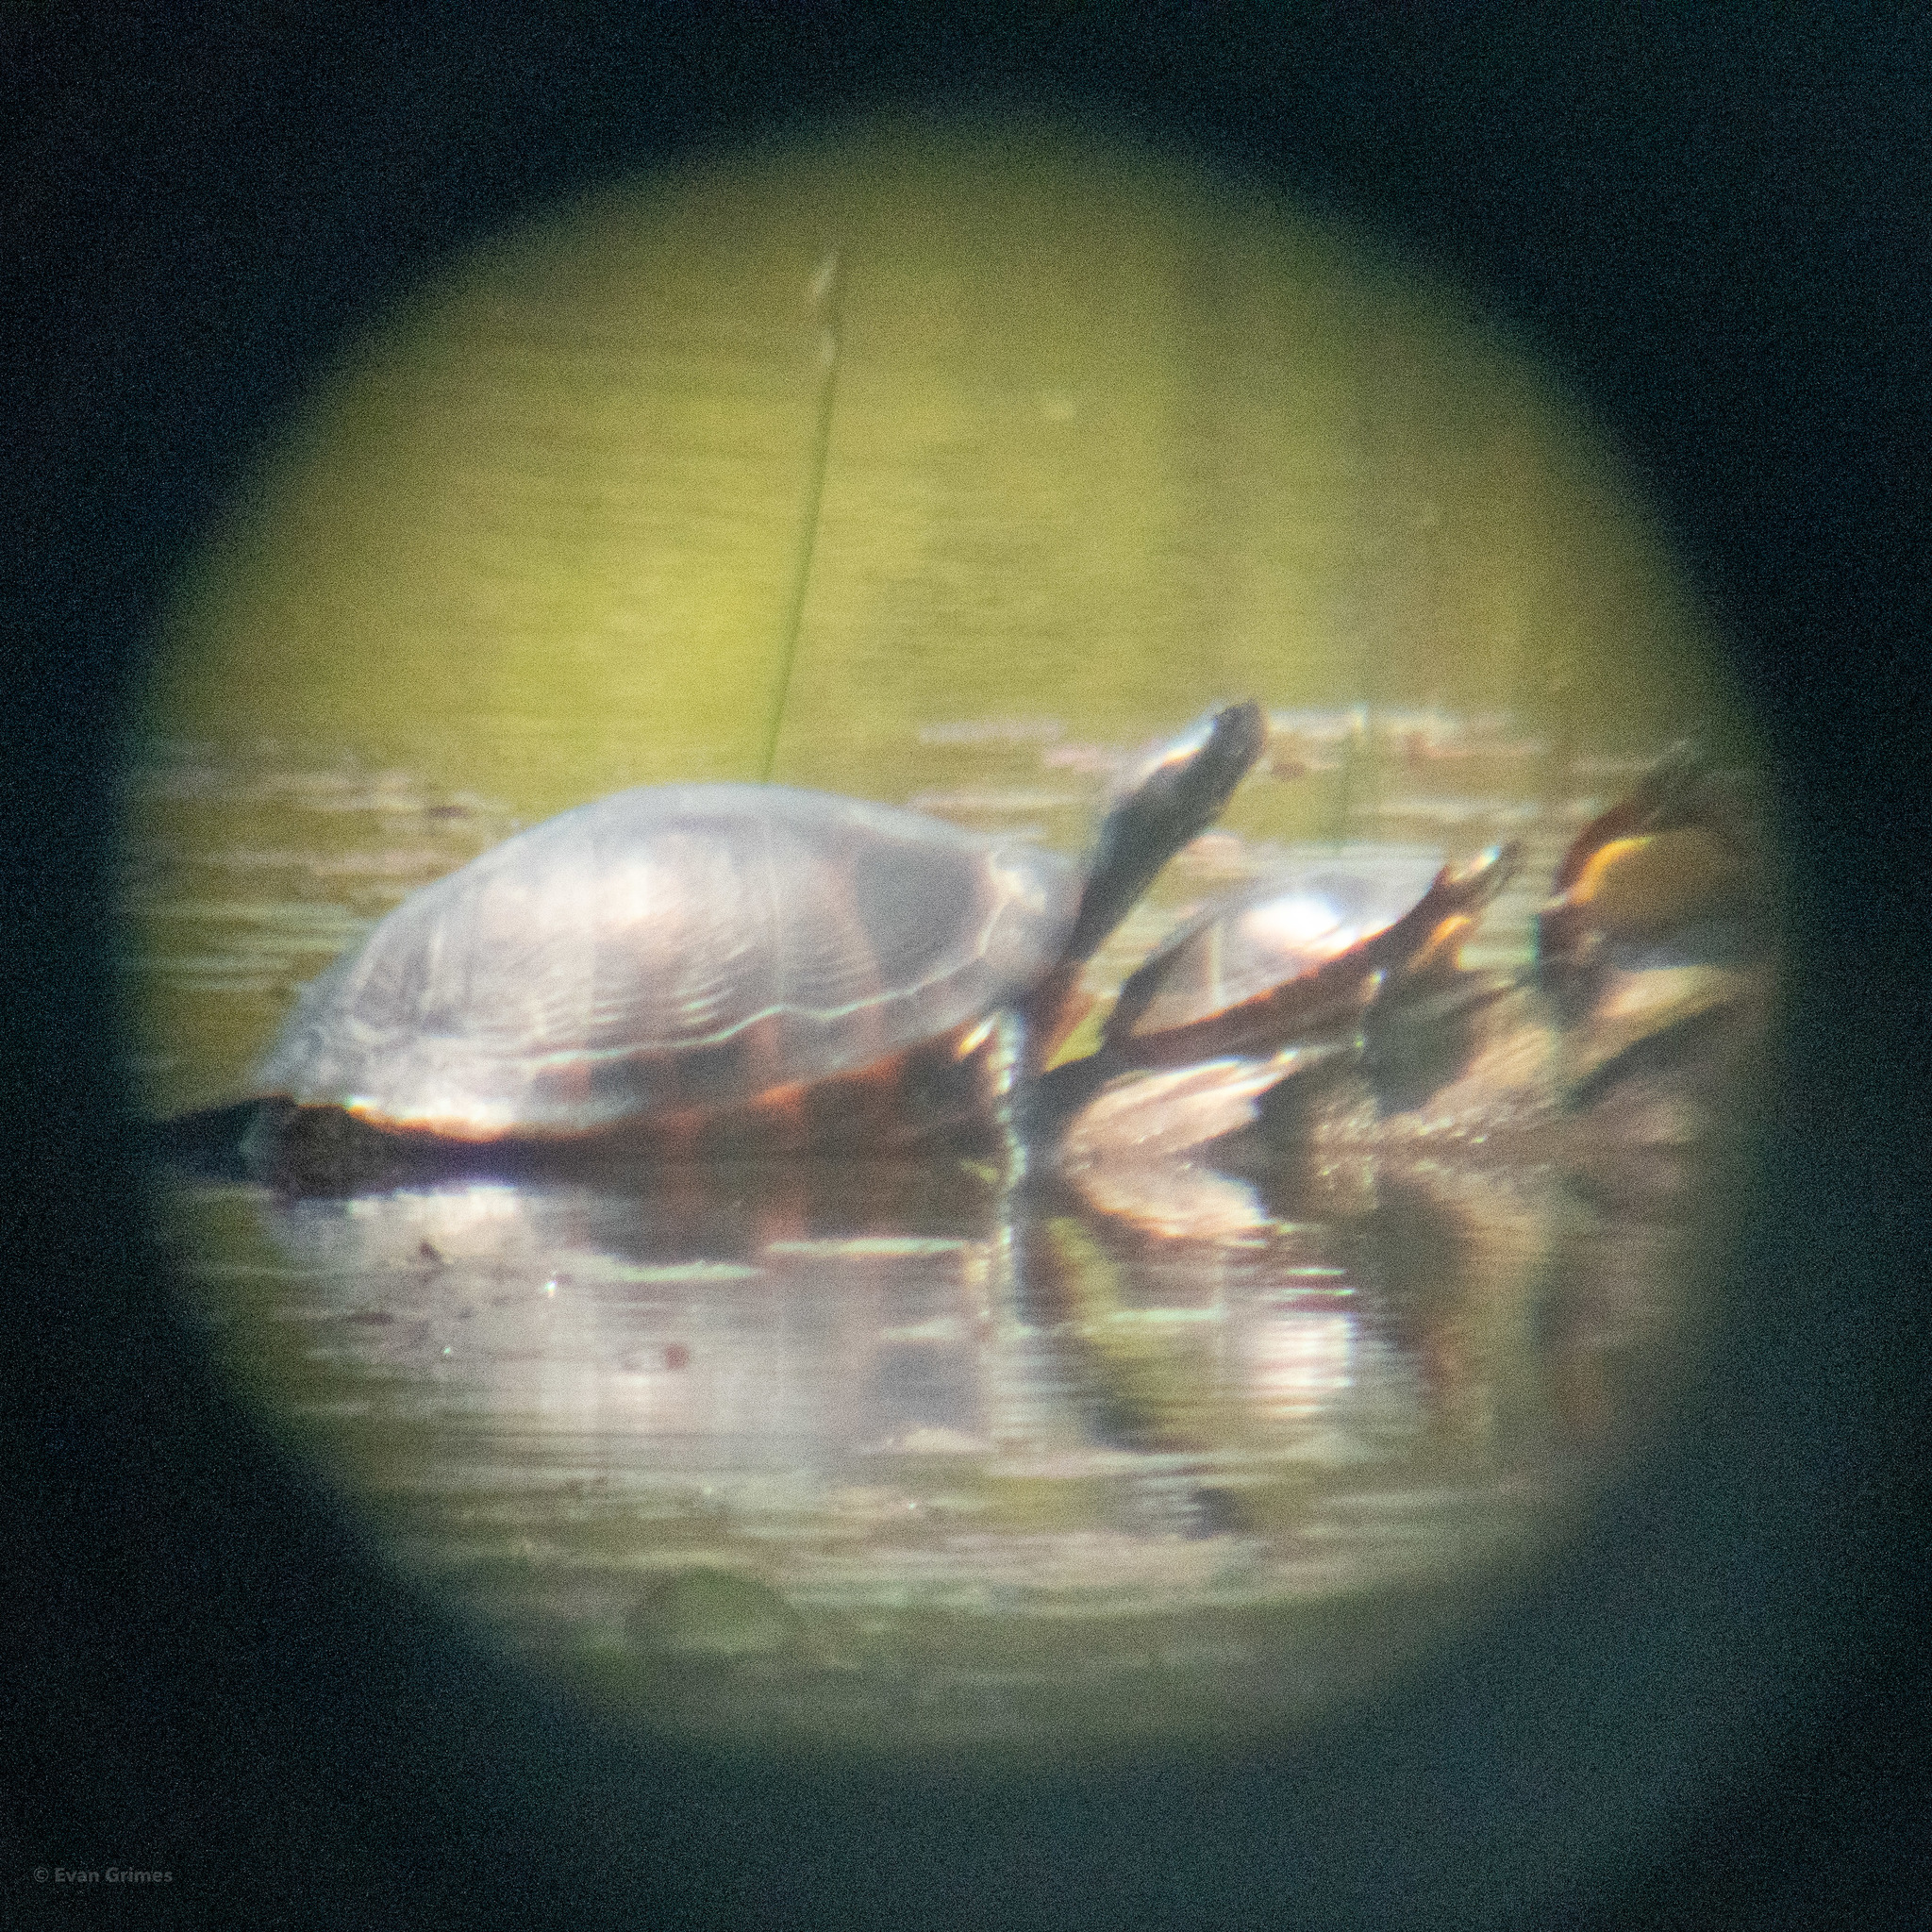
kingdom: Animalia
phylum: Chordata
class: Testudines
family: Emydidae
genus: Pseudemys
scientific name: Pseudemys rubriventris
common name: American red-bellied turtle
